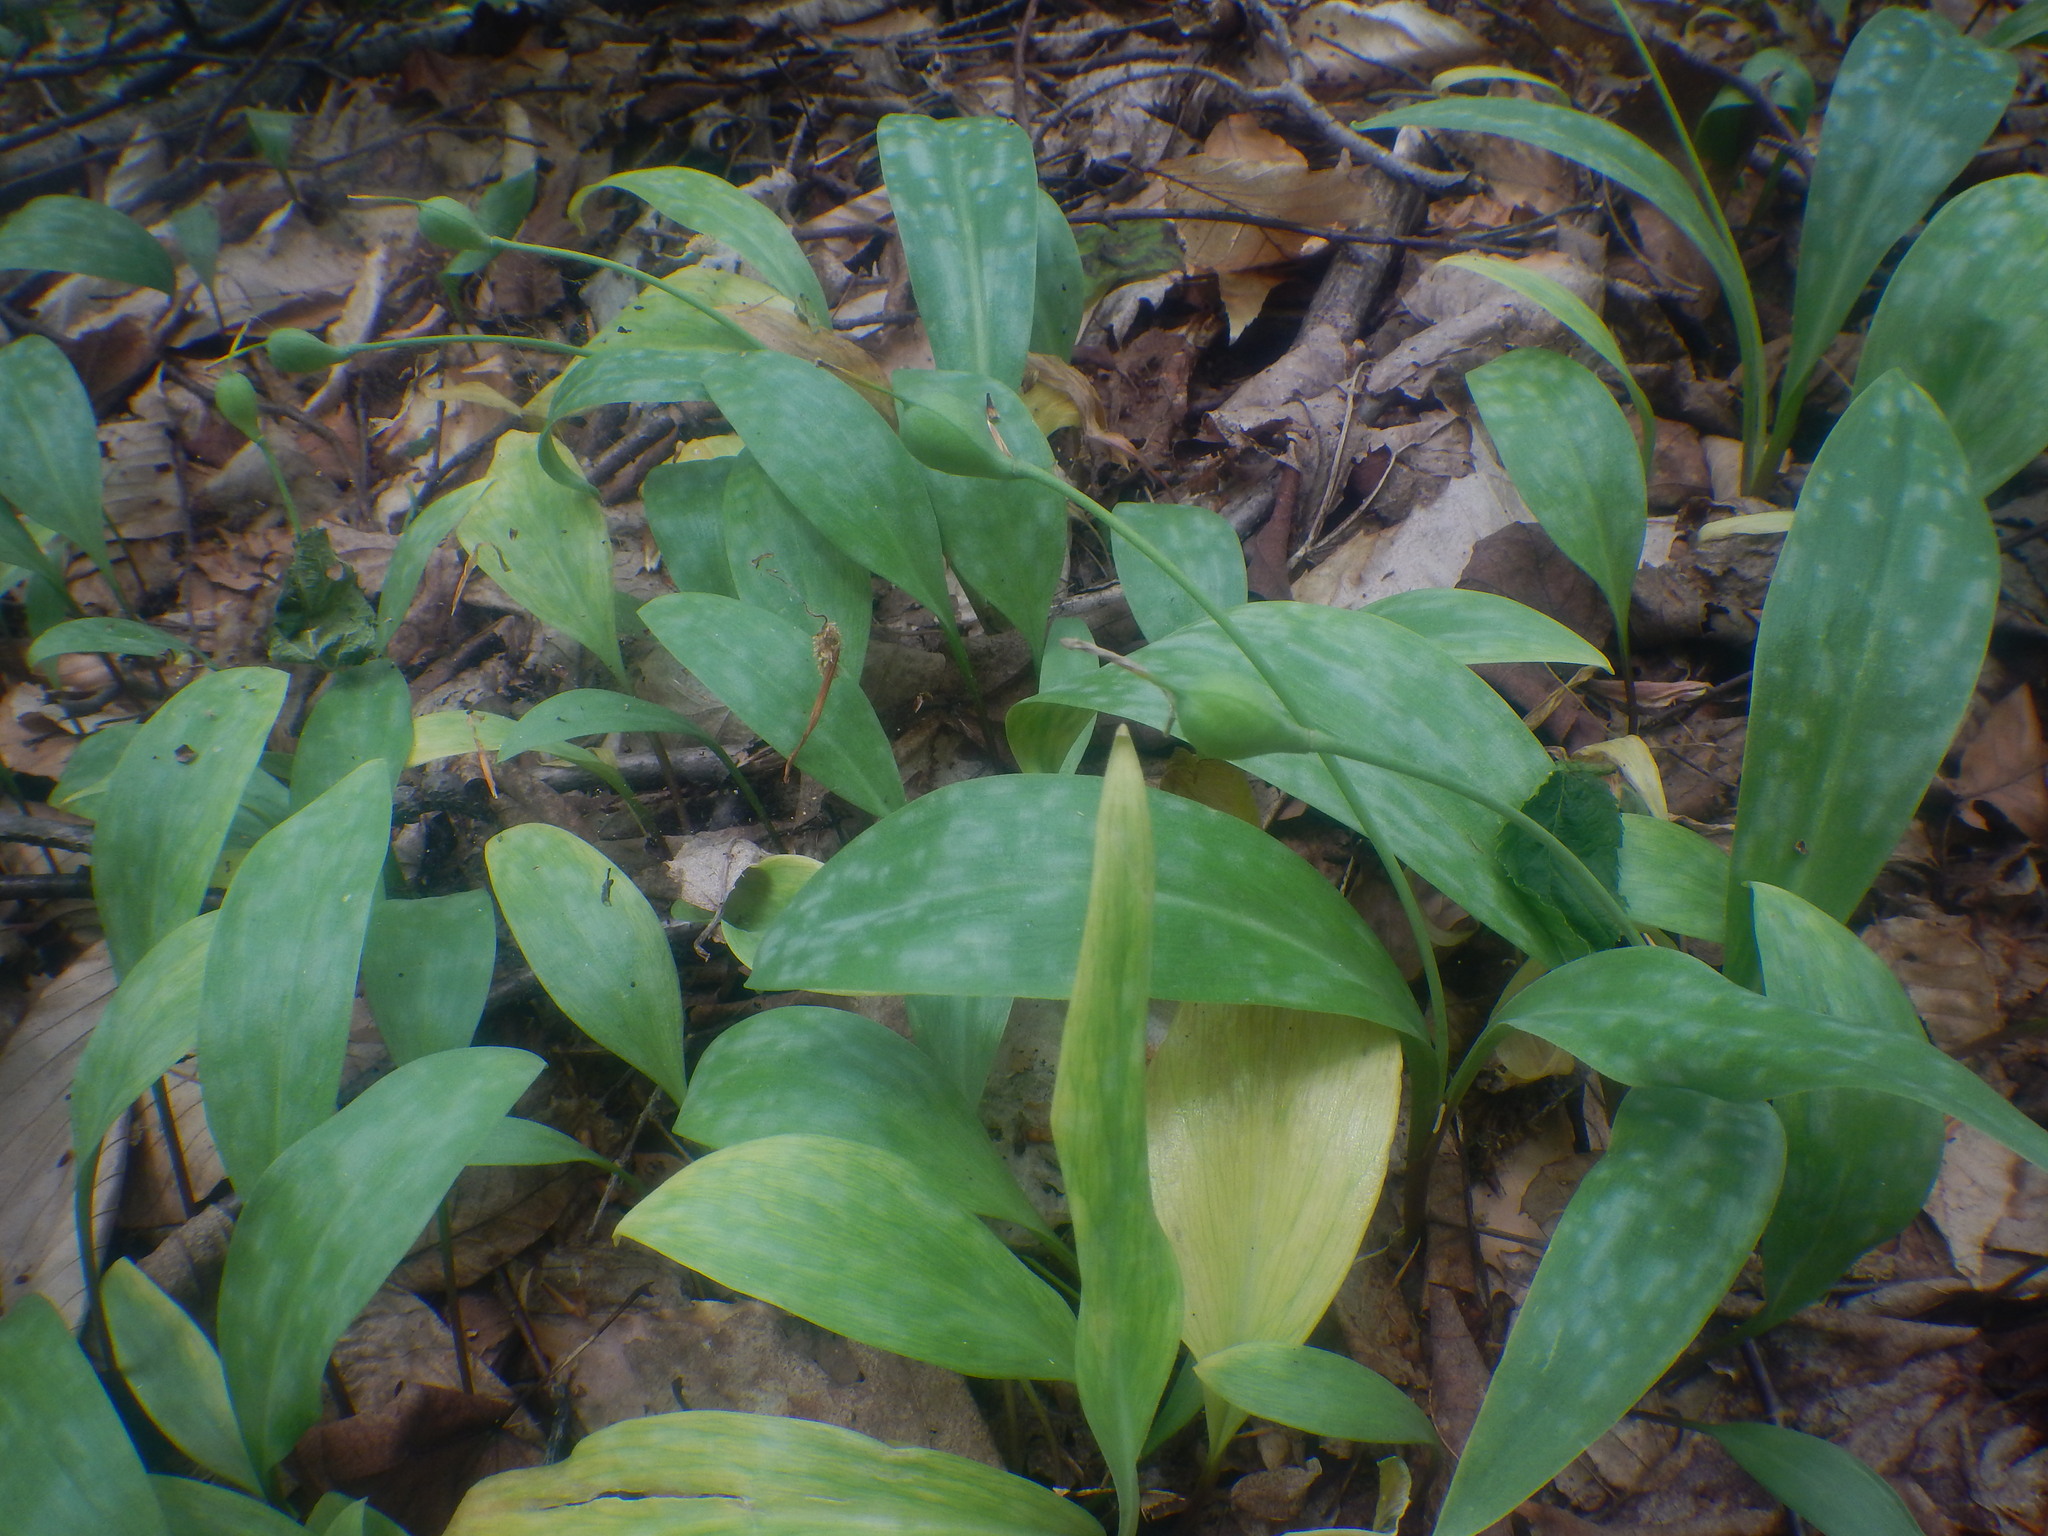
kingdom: Plantae
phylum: Tracheophyta
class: Liliopsida
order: Liliales
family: Liliaceae
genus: Erythronium
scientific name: Erythronium americanum
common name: Yellow adder's-tongue
